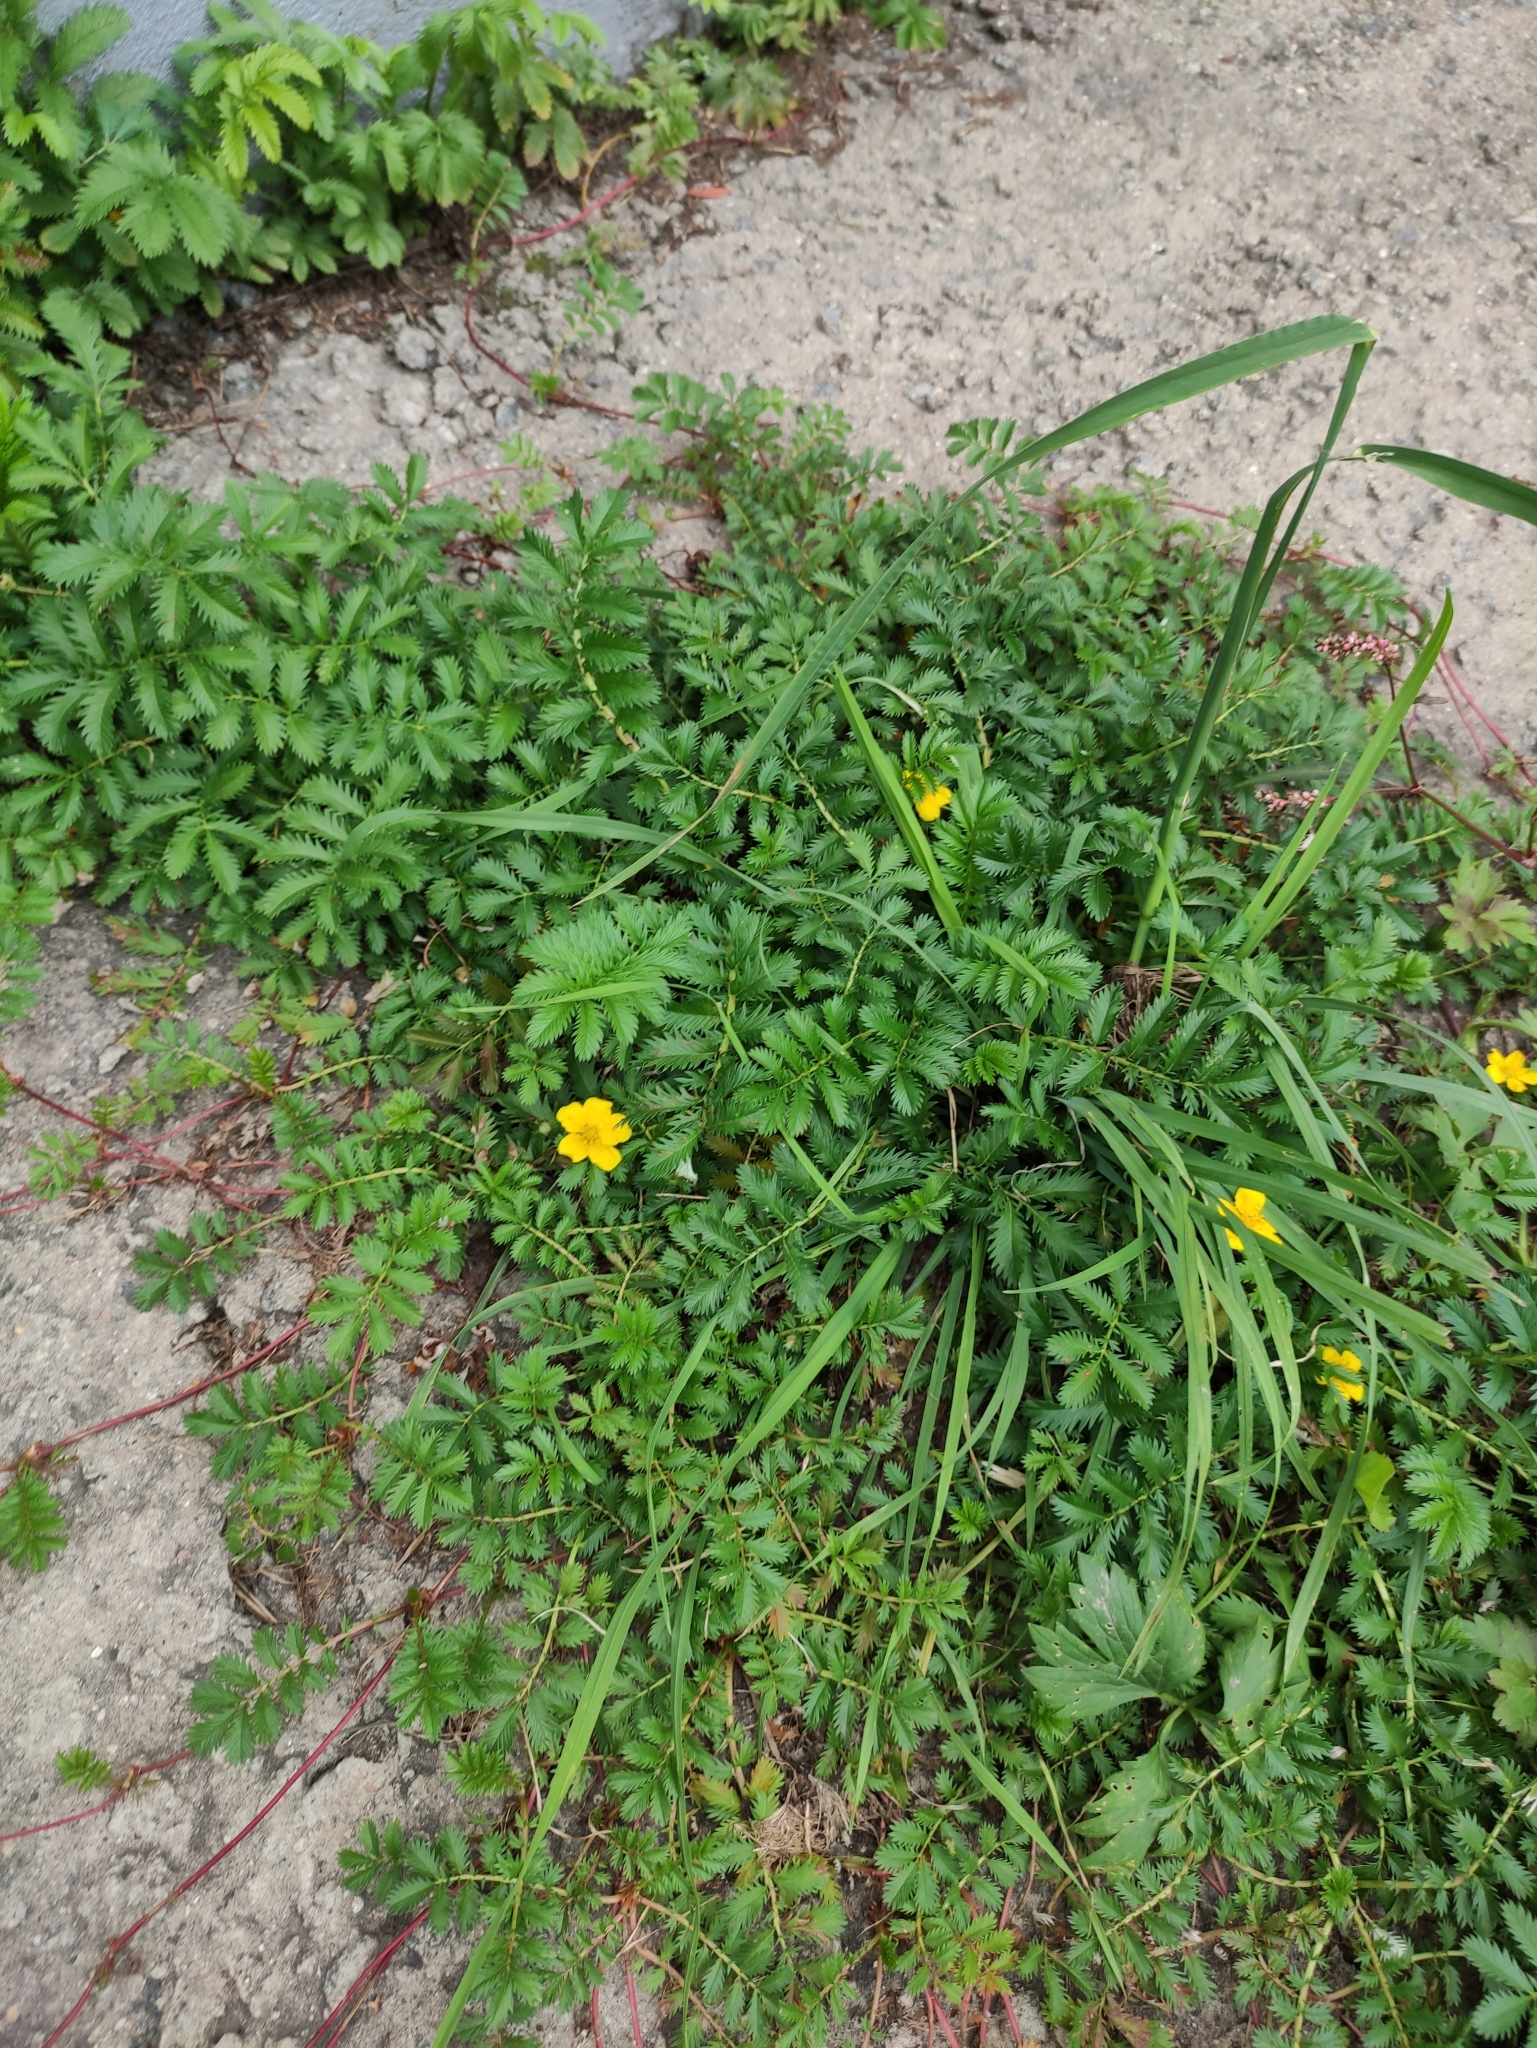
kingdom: Plantae
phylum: Tracheophyta
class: Magnoliopsida
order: Rosales
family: Rosaceae
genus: Argentina
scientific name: Argentina anserina
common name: Common silverweed
